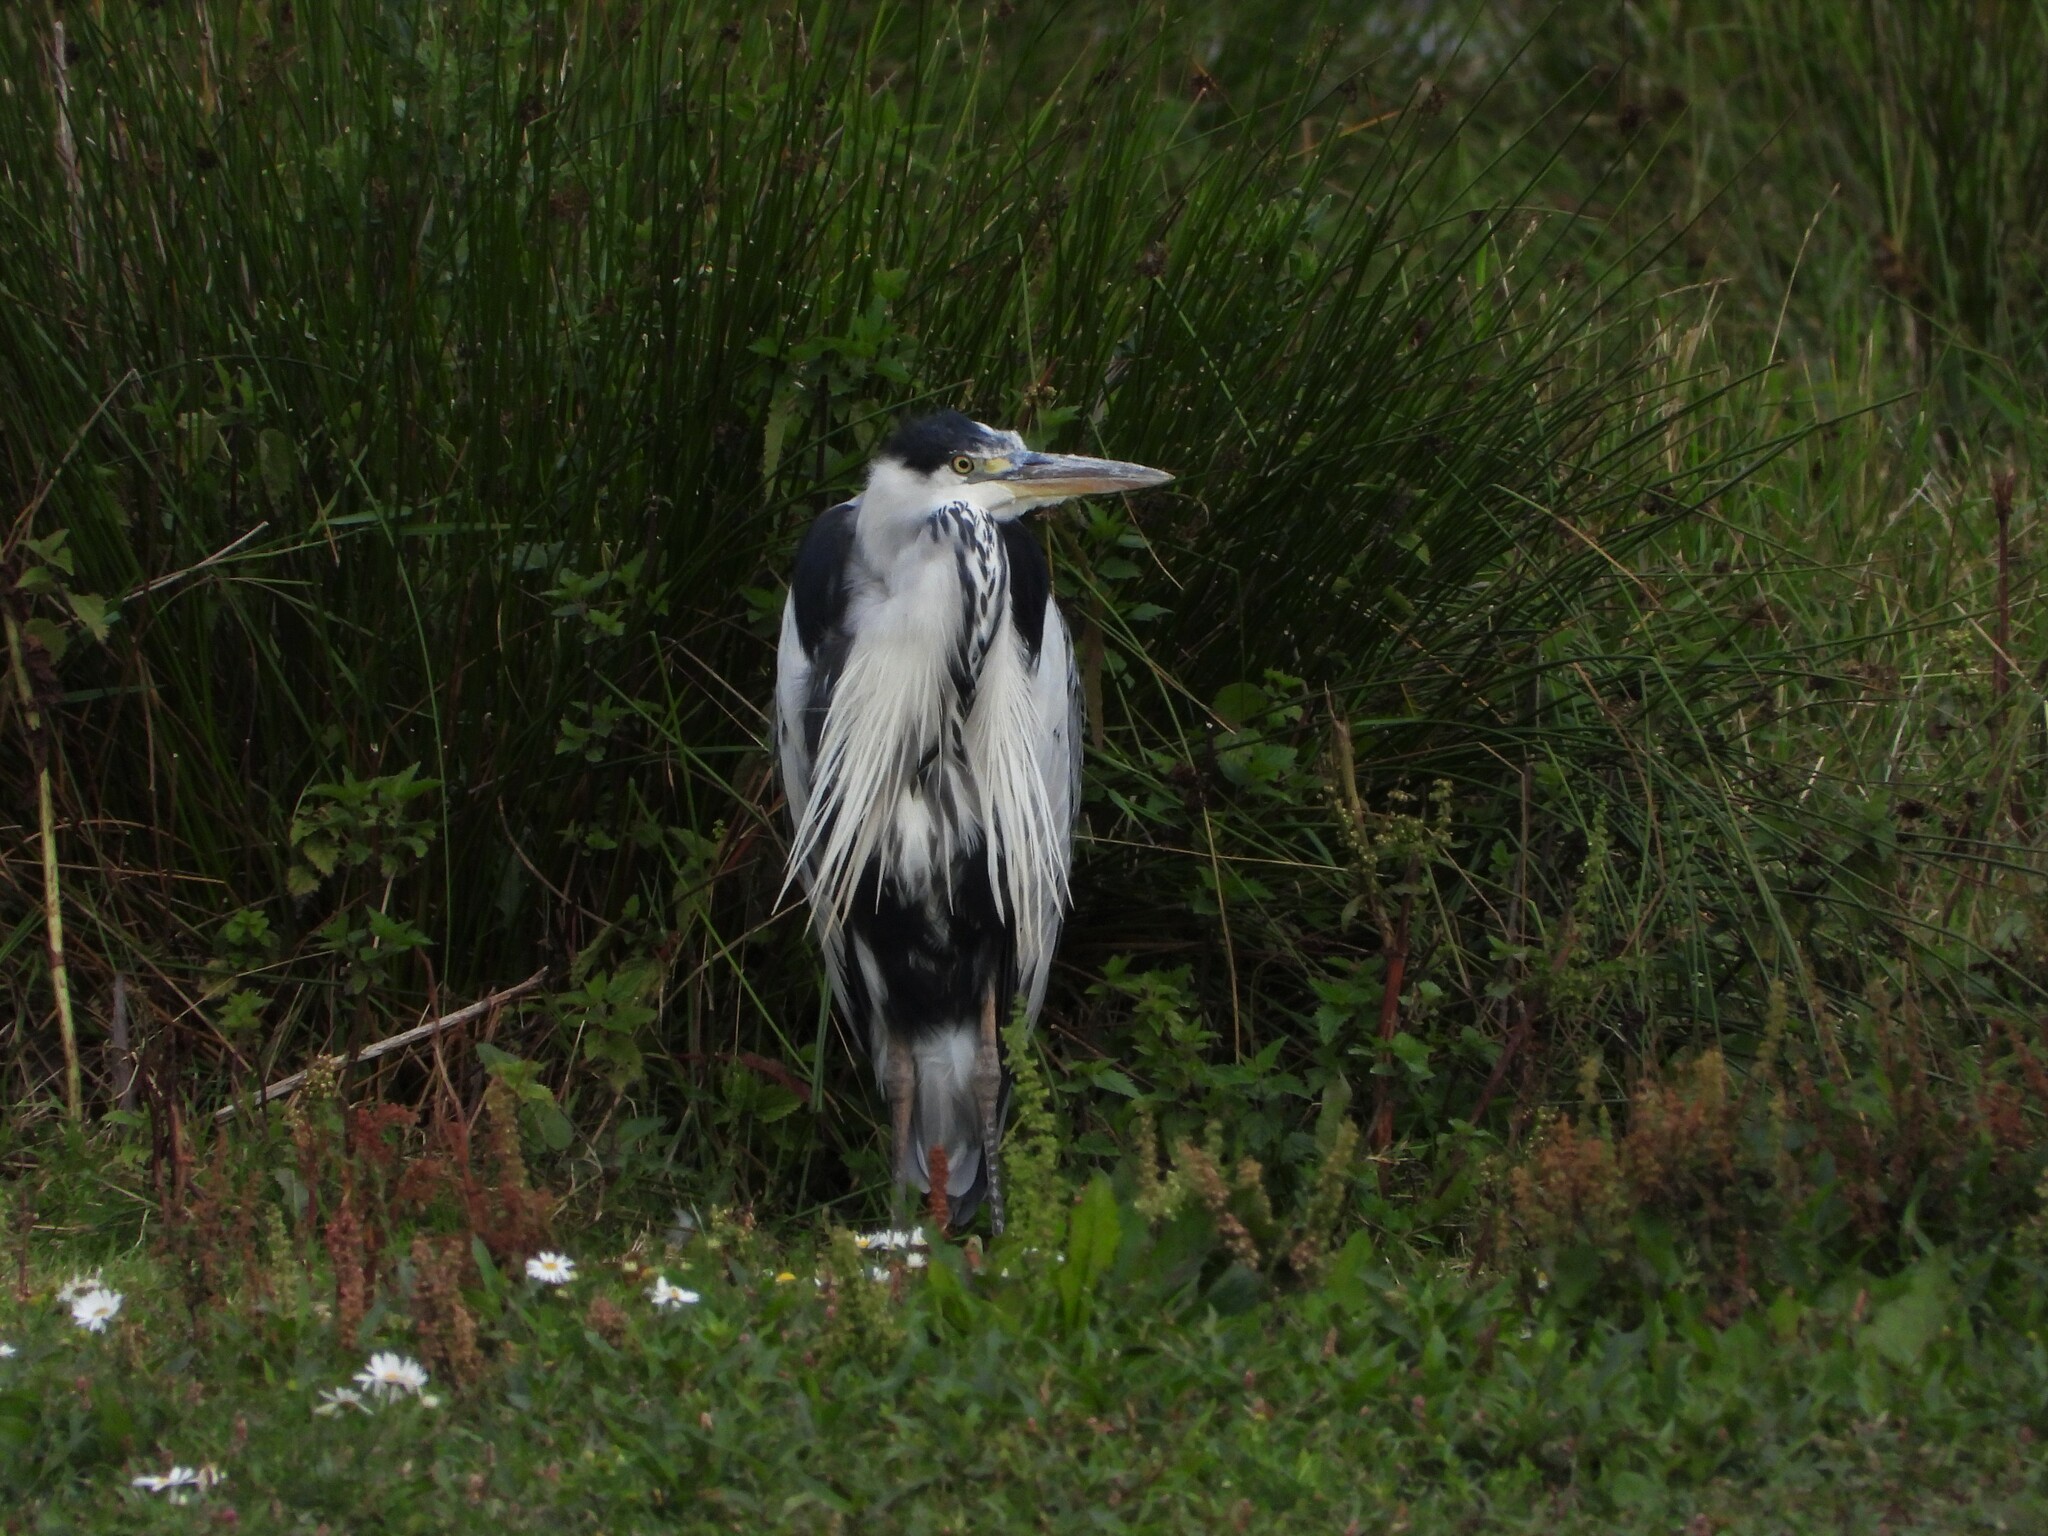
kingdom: Animalia
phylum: Chordata
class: Aves
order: Pelecaniformes
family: Ardeidae
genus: Ardea
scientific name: Ardea cinerea
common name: Grey heron
